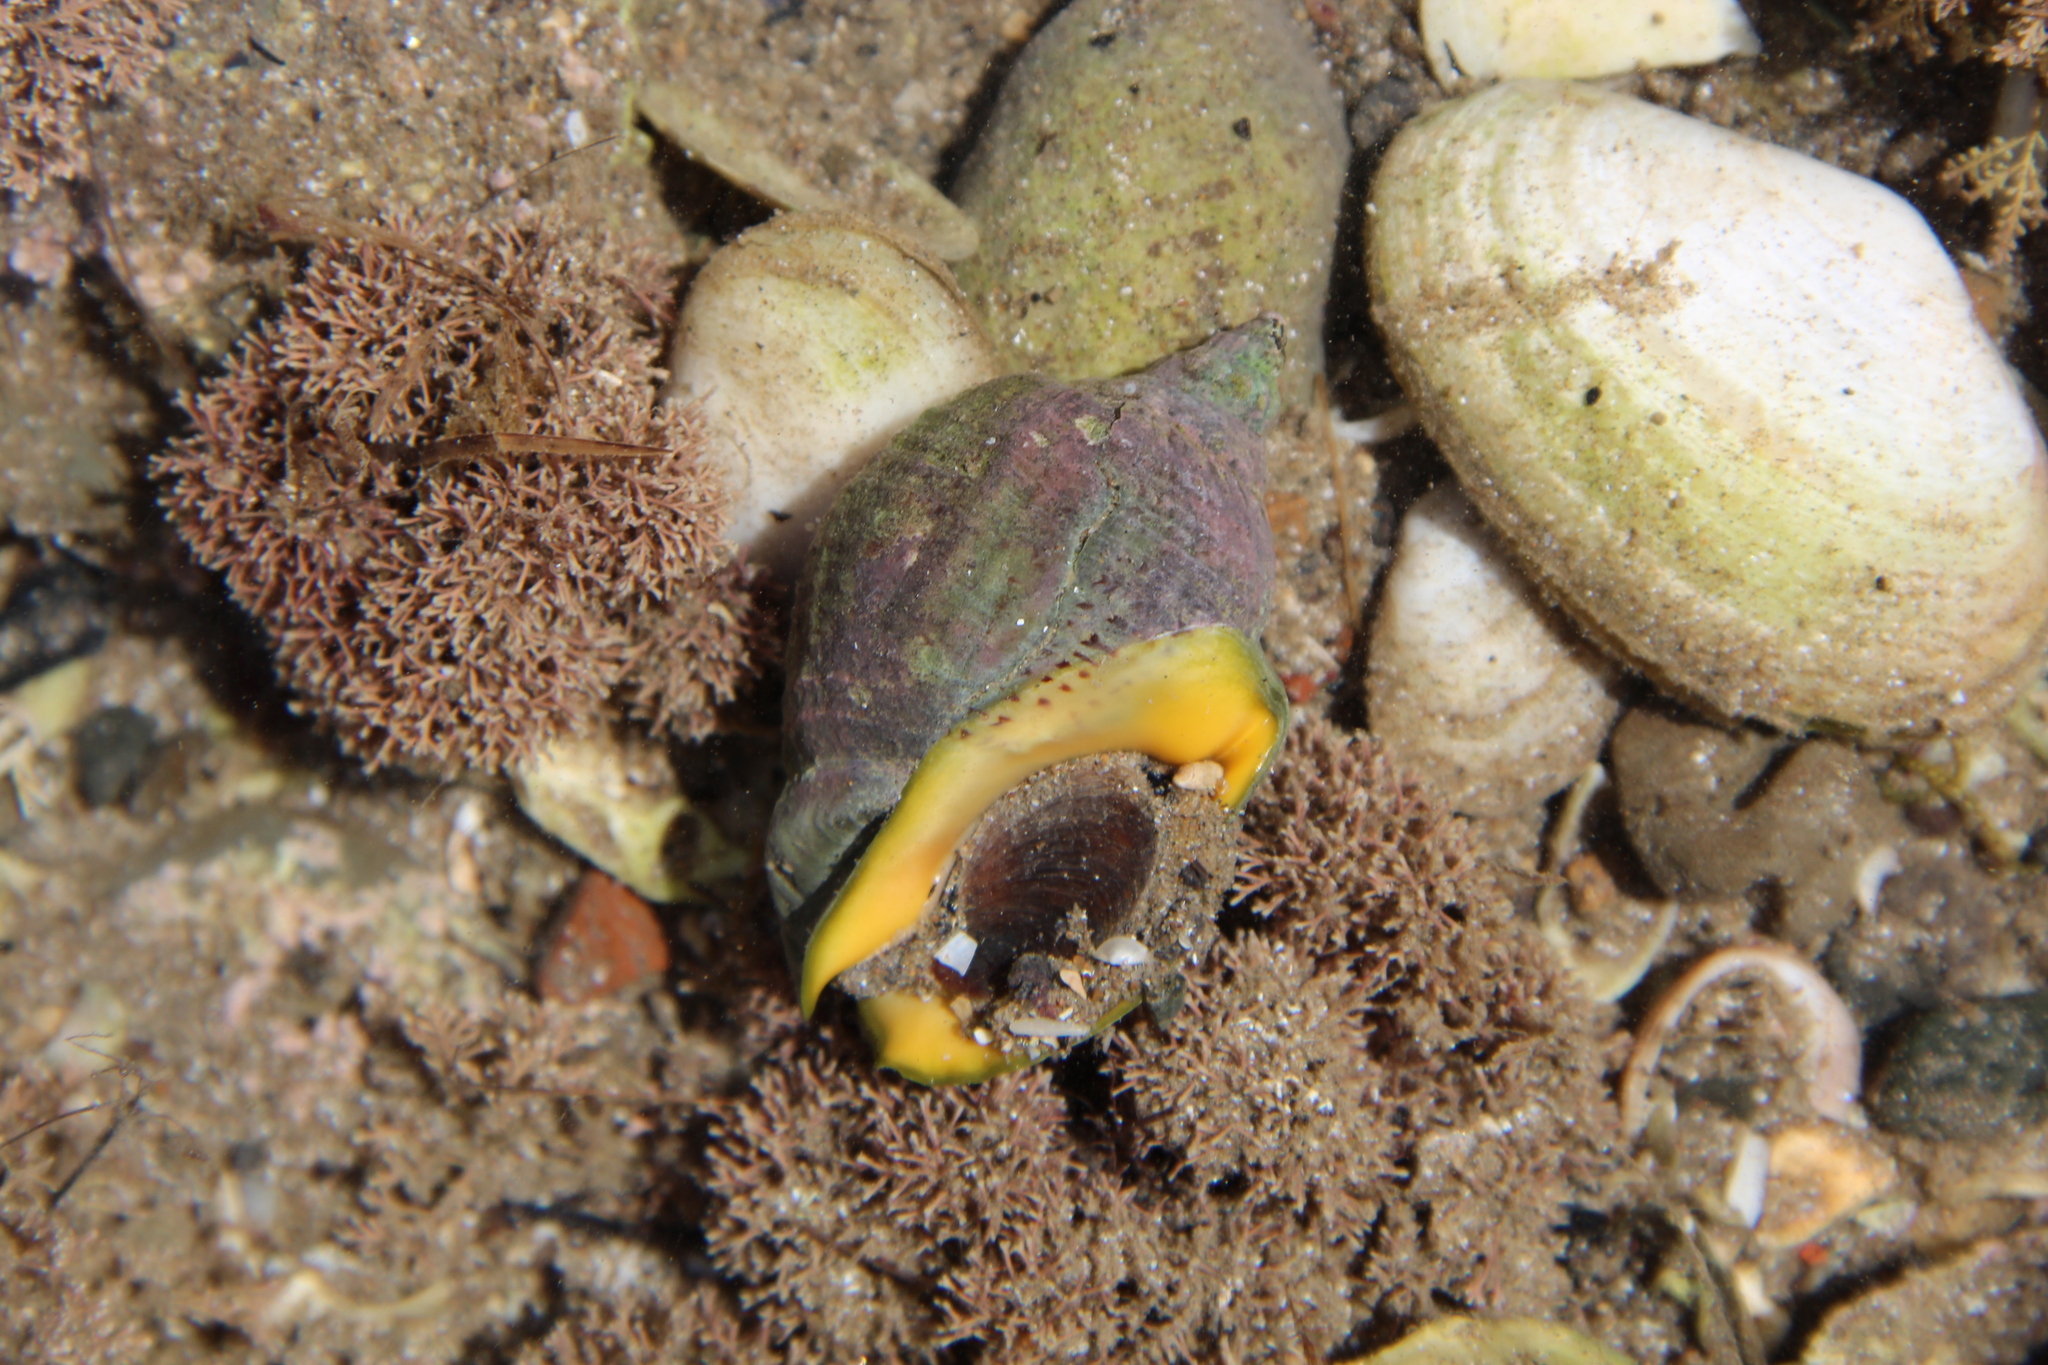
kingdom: Animalia
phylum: Mollusca
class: Gastropoda
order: Neogastropoda
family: Cominellidae
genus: Cominella
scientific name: Cominella adspersa
